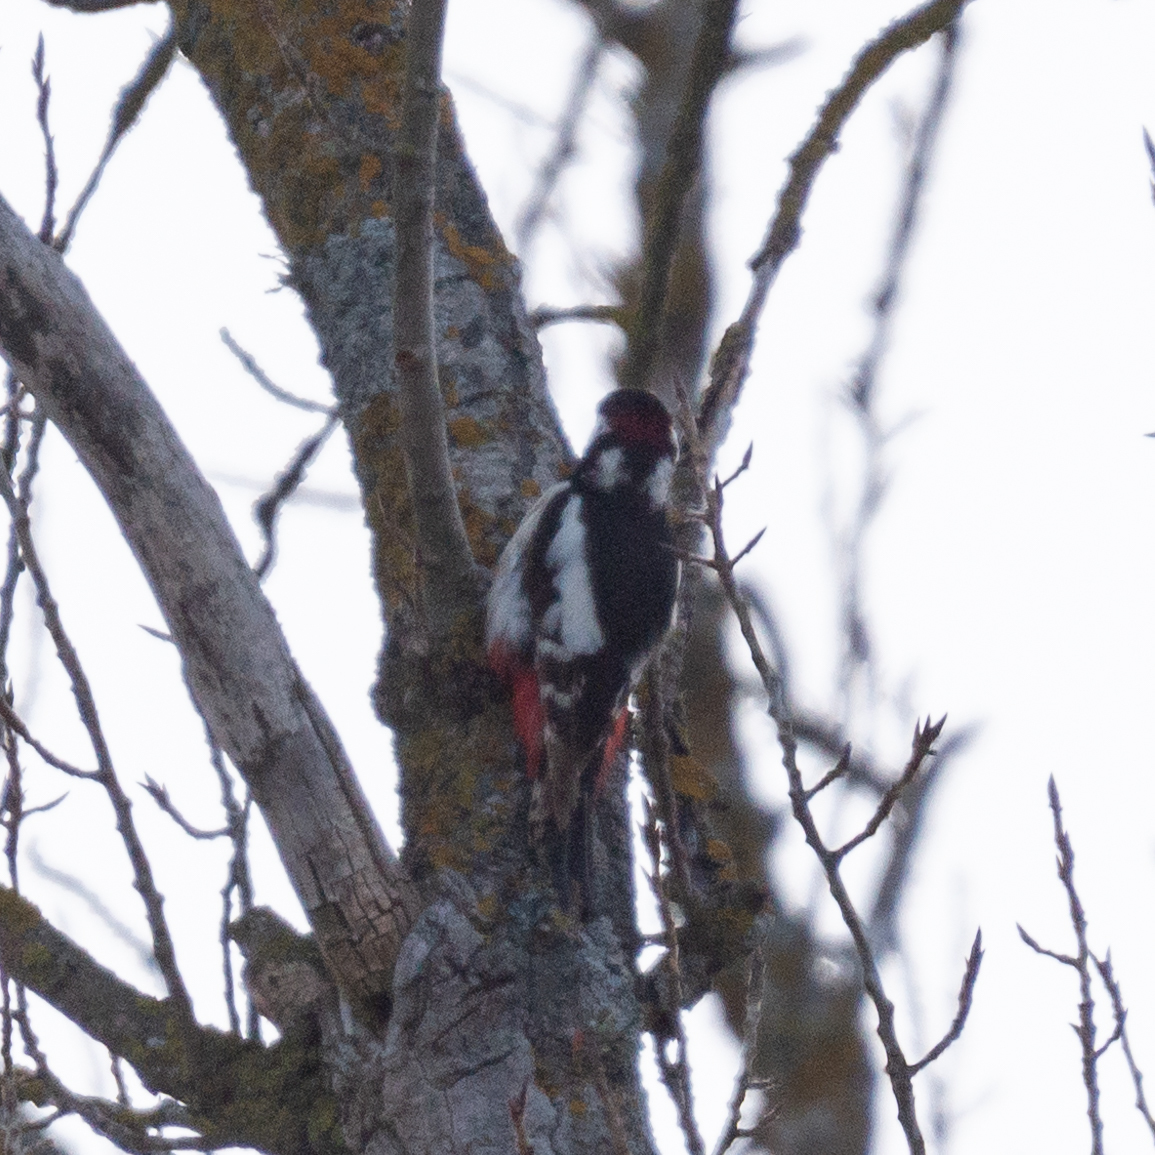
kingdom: Animalia
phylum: Chordata
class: Aves
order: Piciformes
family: Picidae
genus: Dendrocopos
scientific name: Dendrocopos major
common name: Great spotted woodpecker
